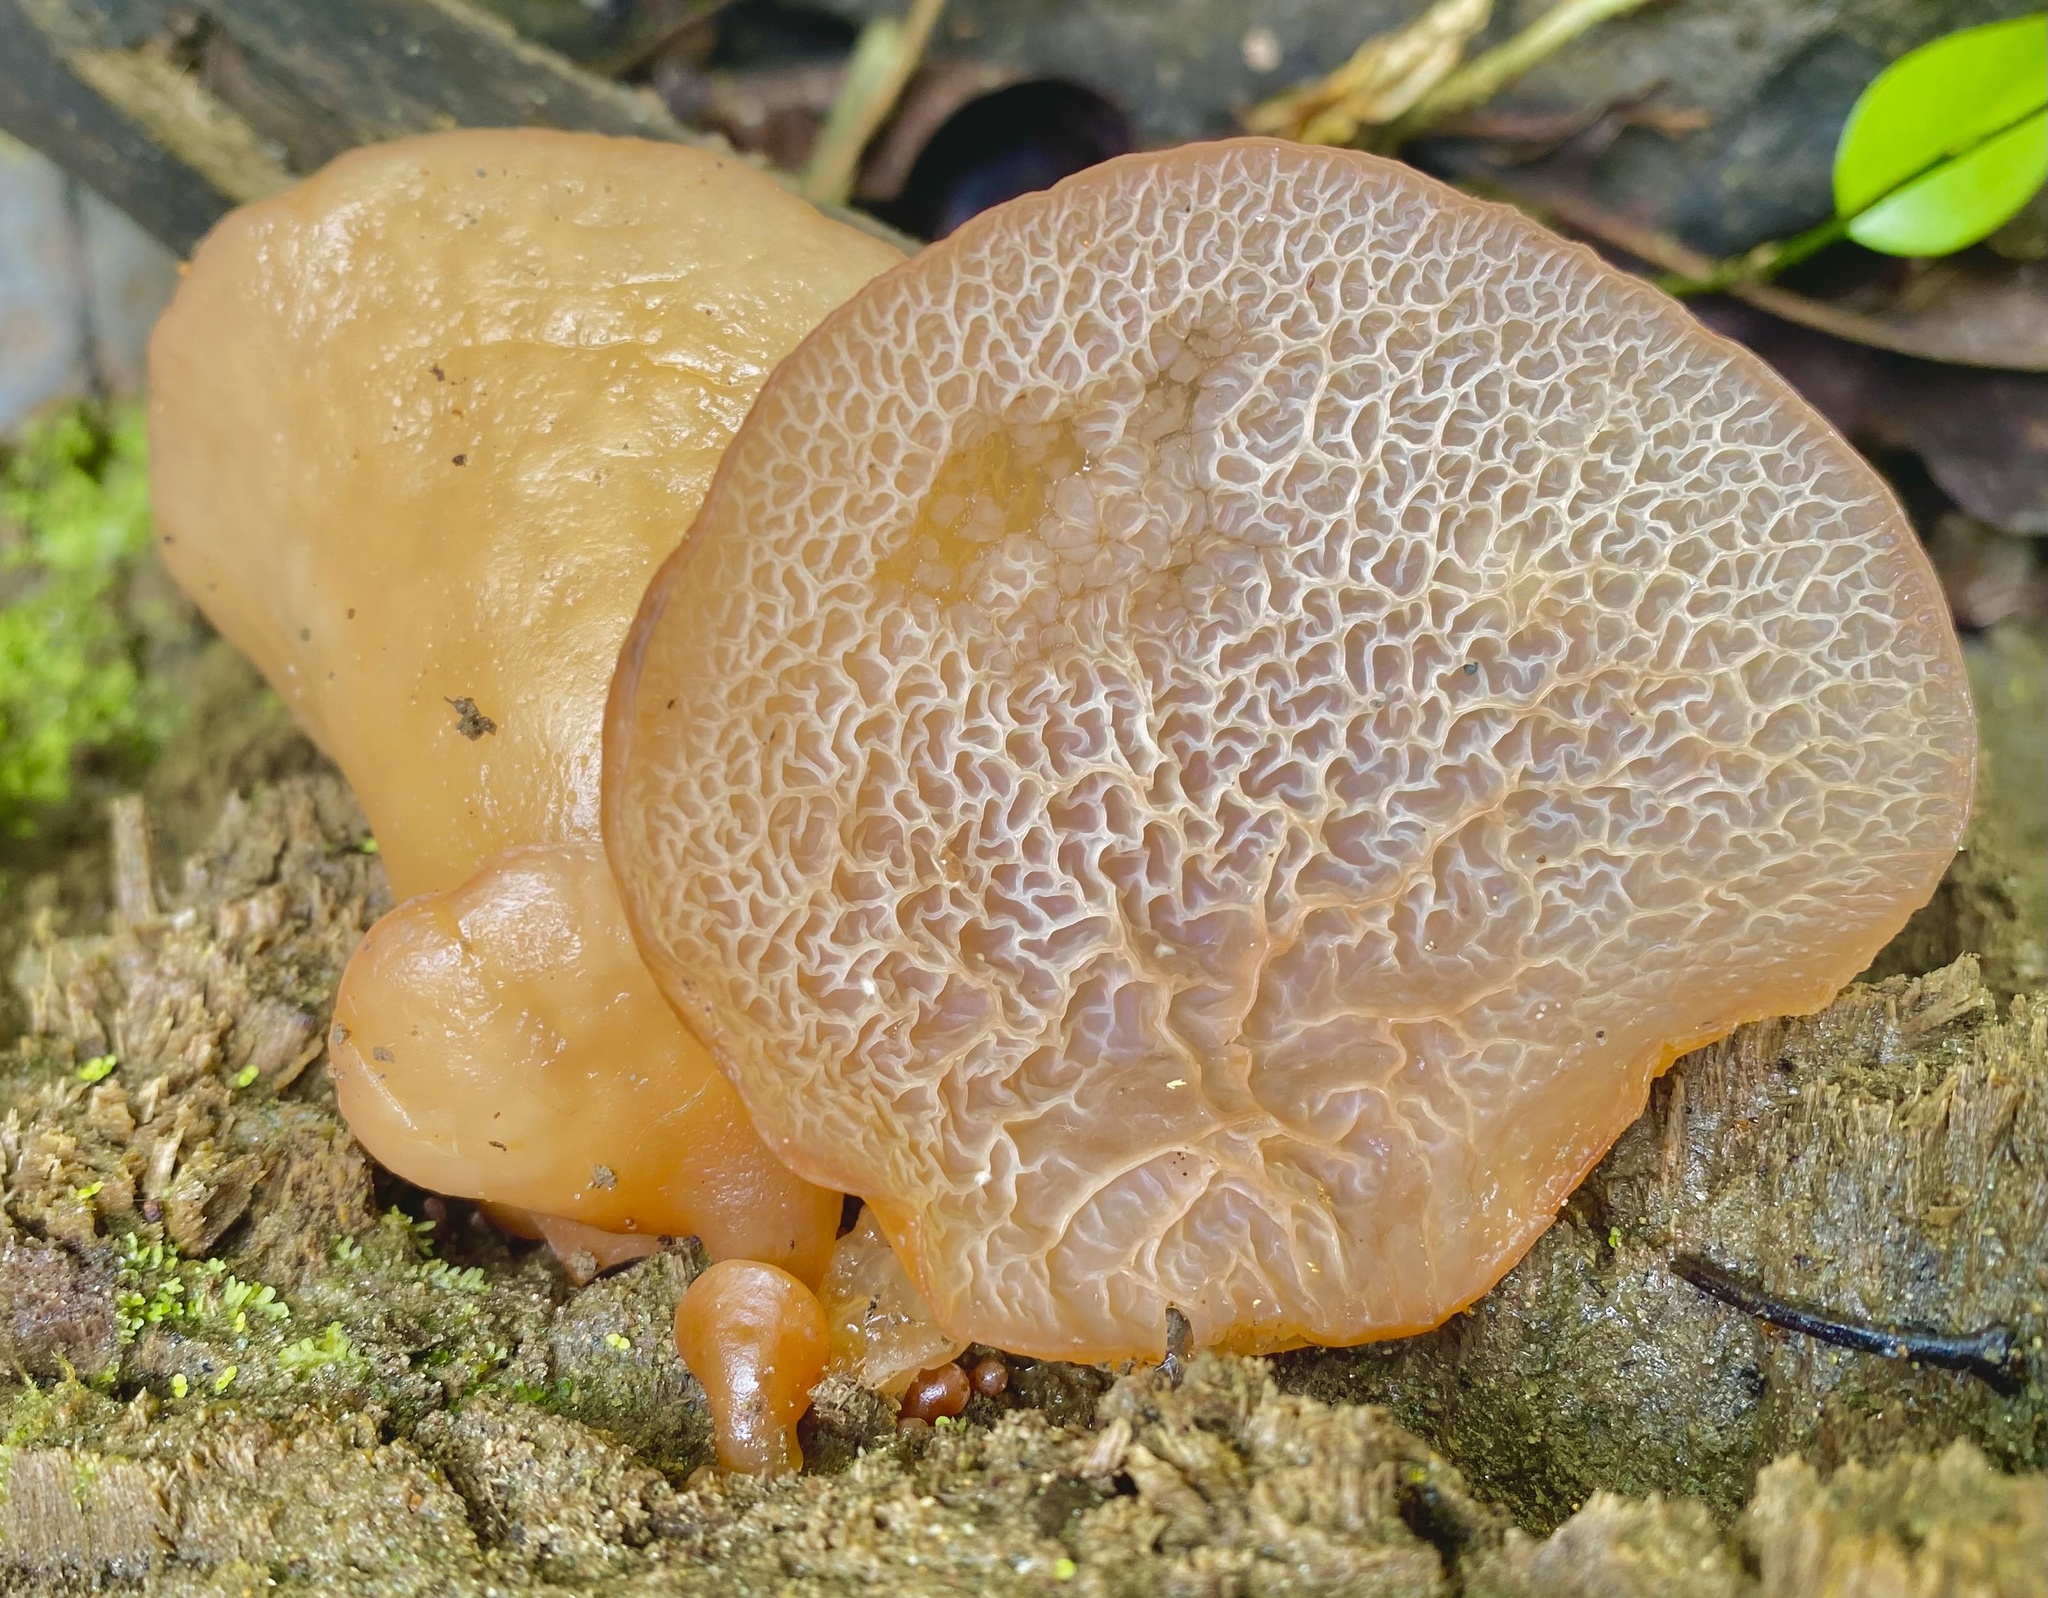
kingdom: Fungi
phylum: Basidiomycota
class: Agaricomycetes
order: Auriculariales
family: Auriculariaceae
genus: Auricularia
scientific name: Auricularia delicata
